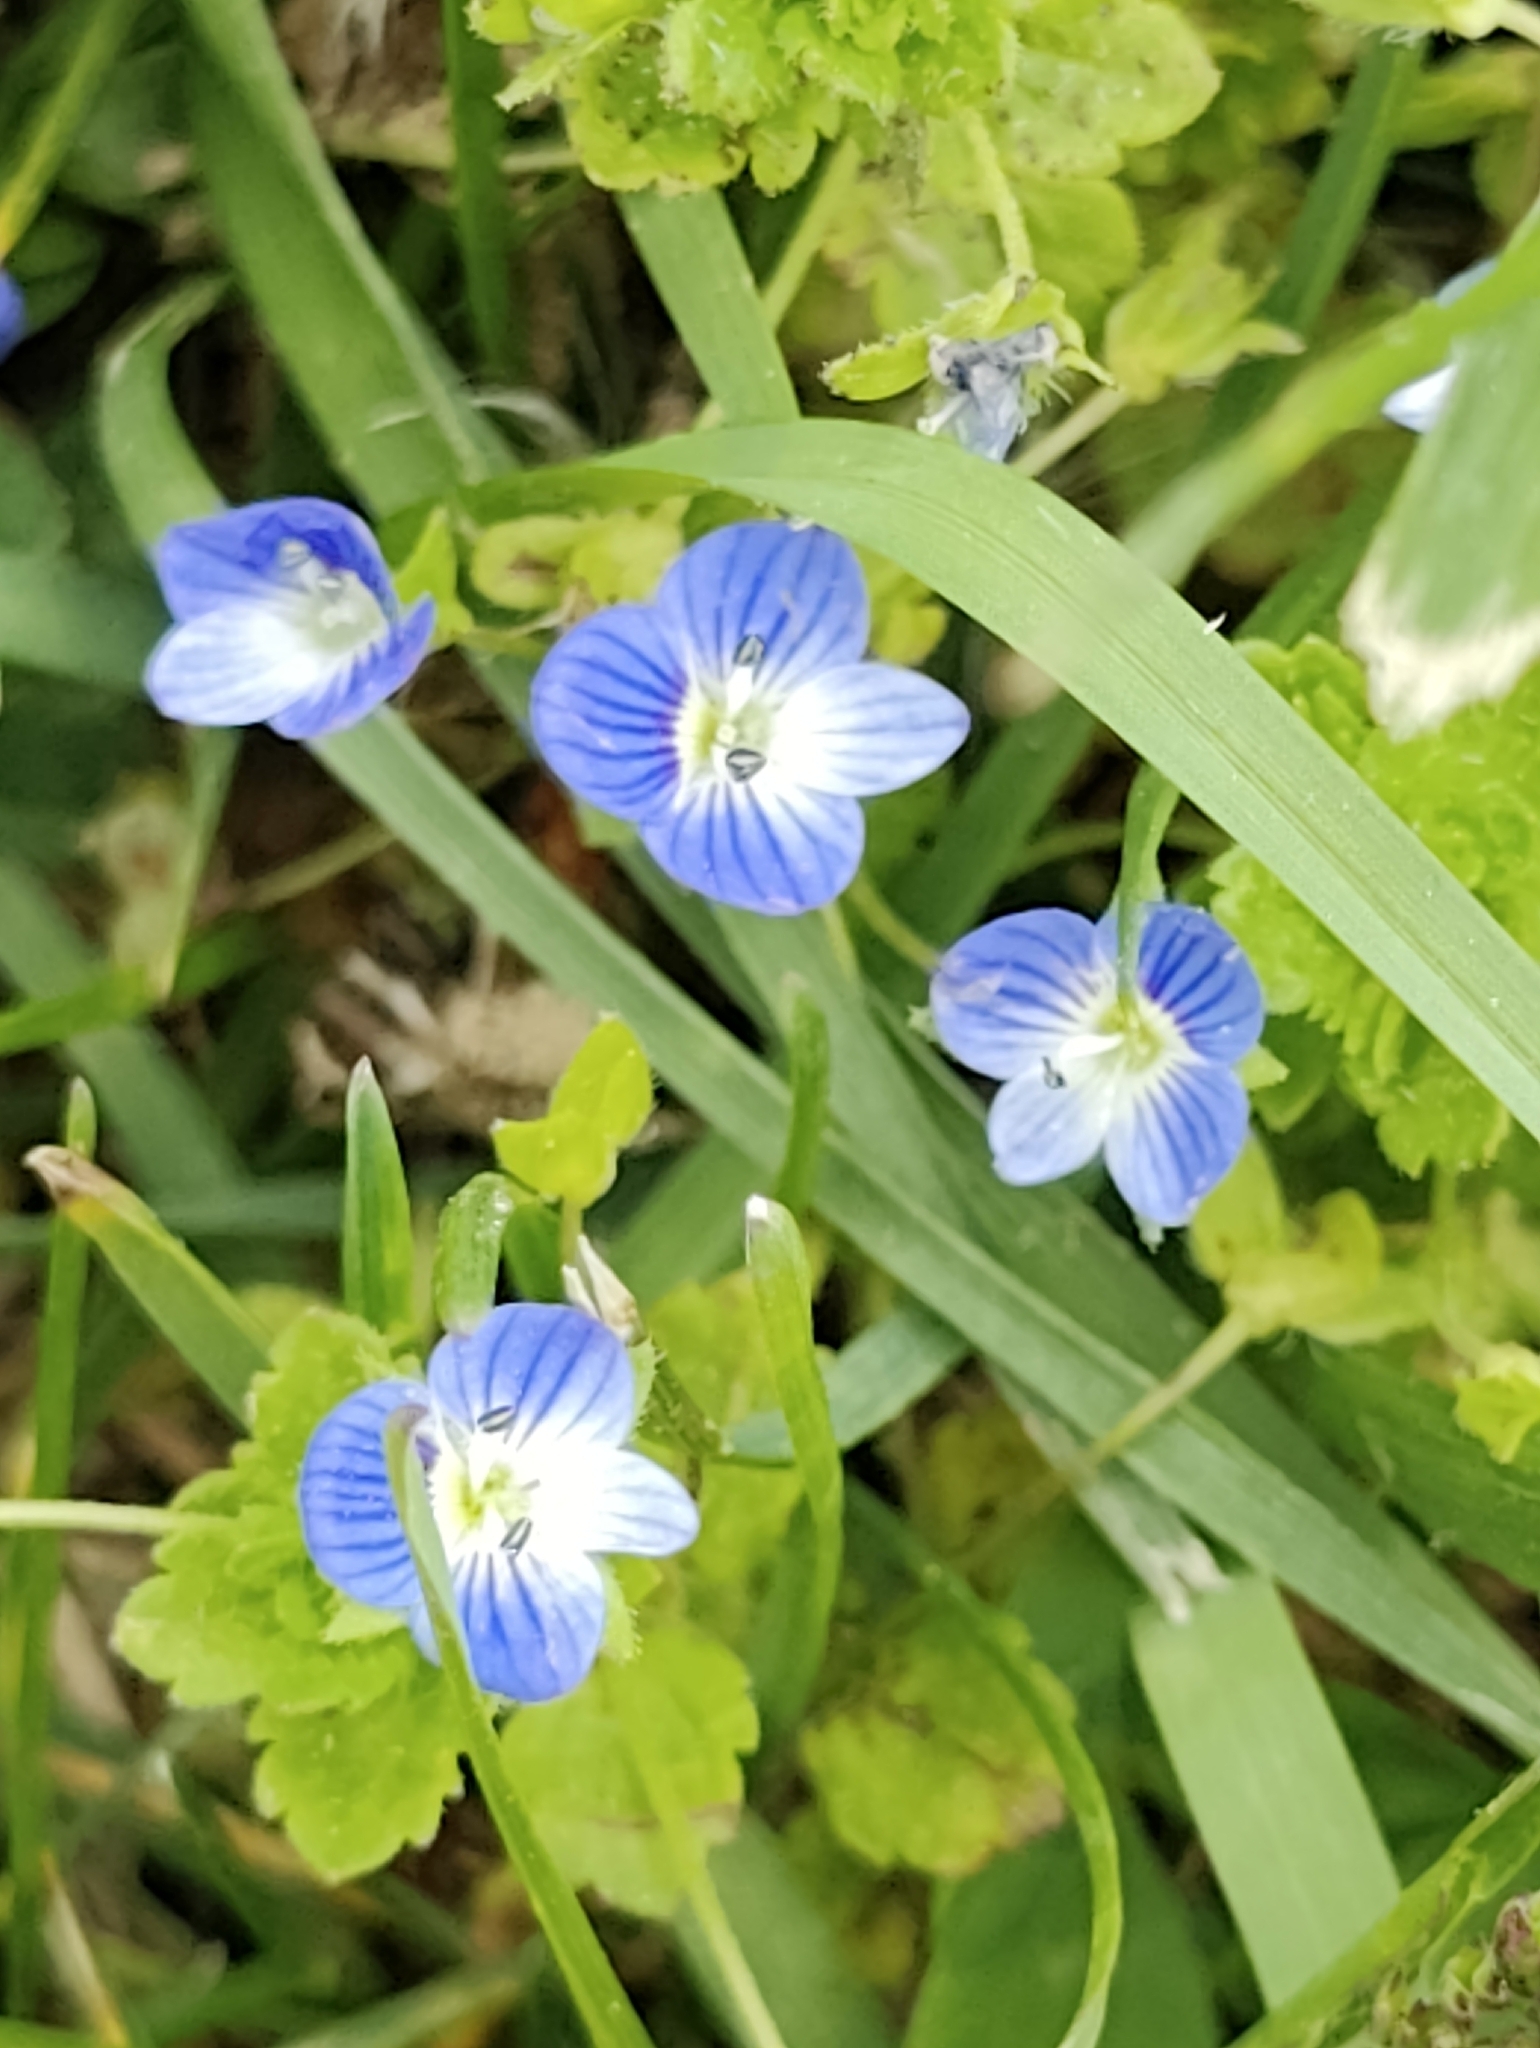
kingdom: Plantae
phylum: Tracheophyta
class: Magnoliopsida
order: Lamiales
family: Plantaginaceae
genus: Veronica
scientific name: Veronica persica
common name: Common field-speedwell
